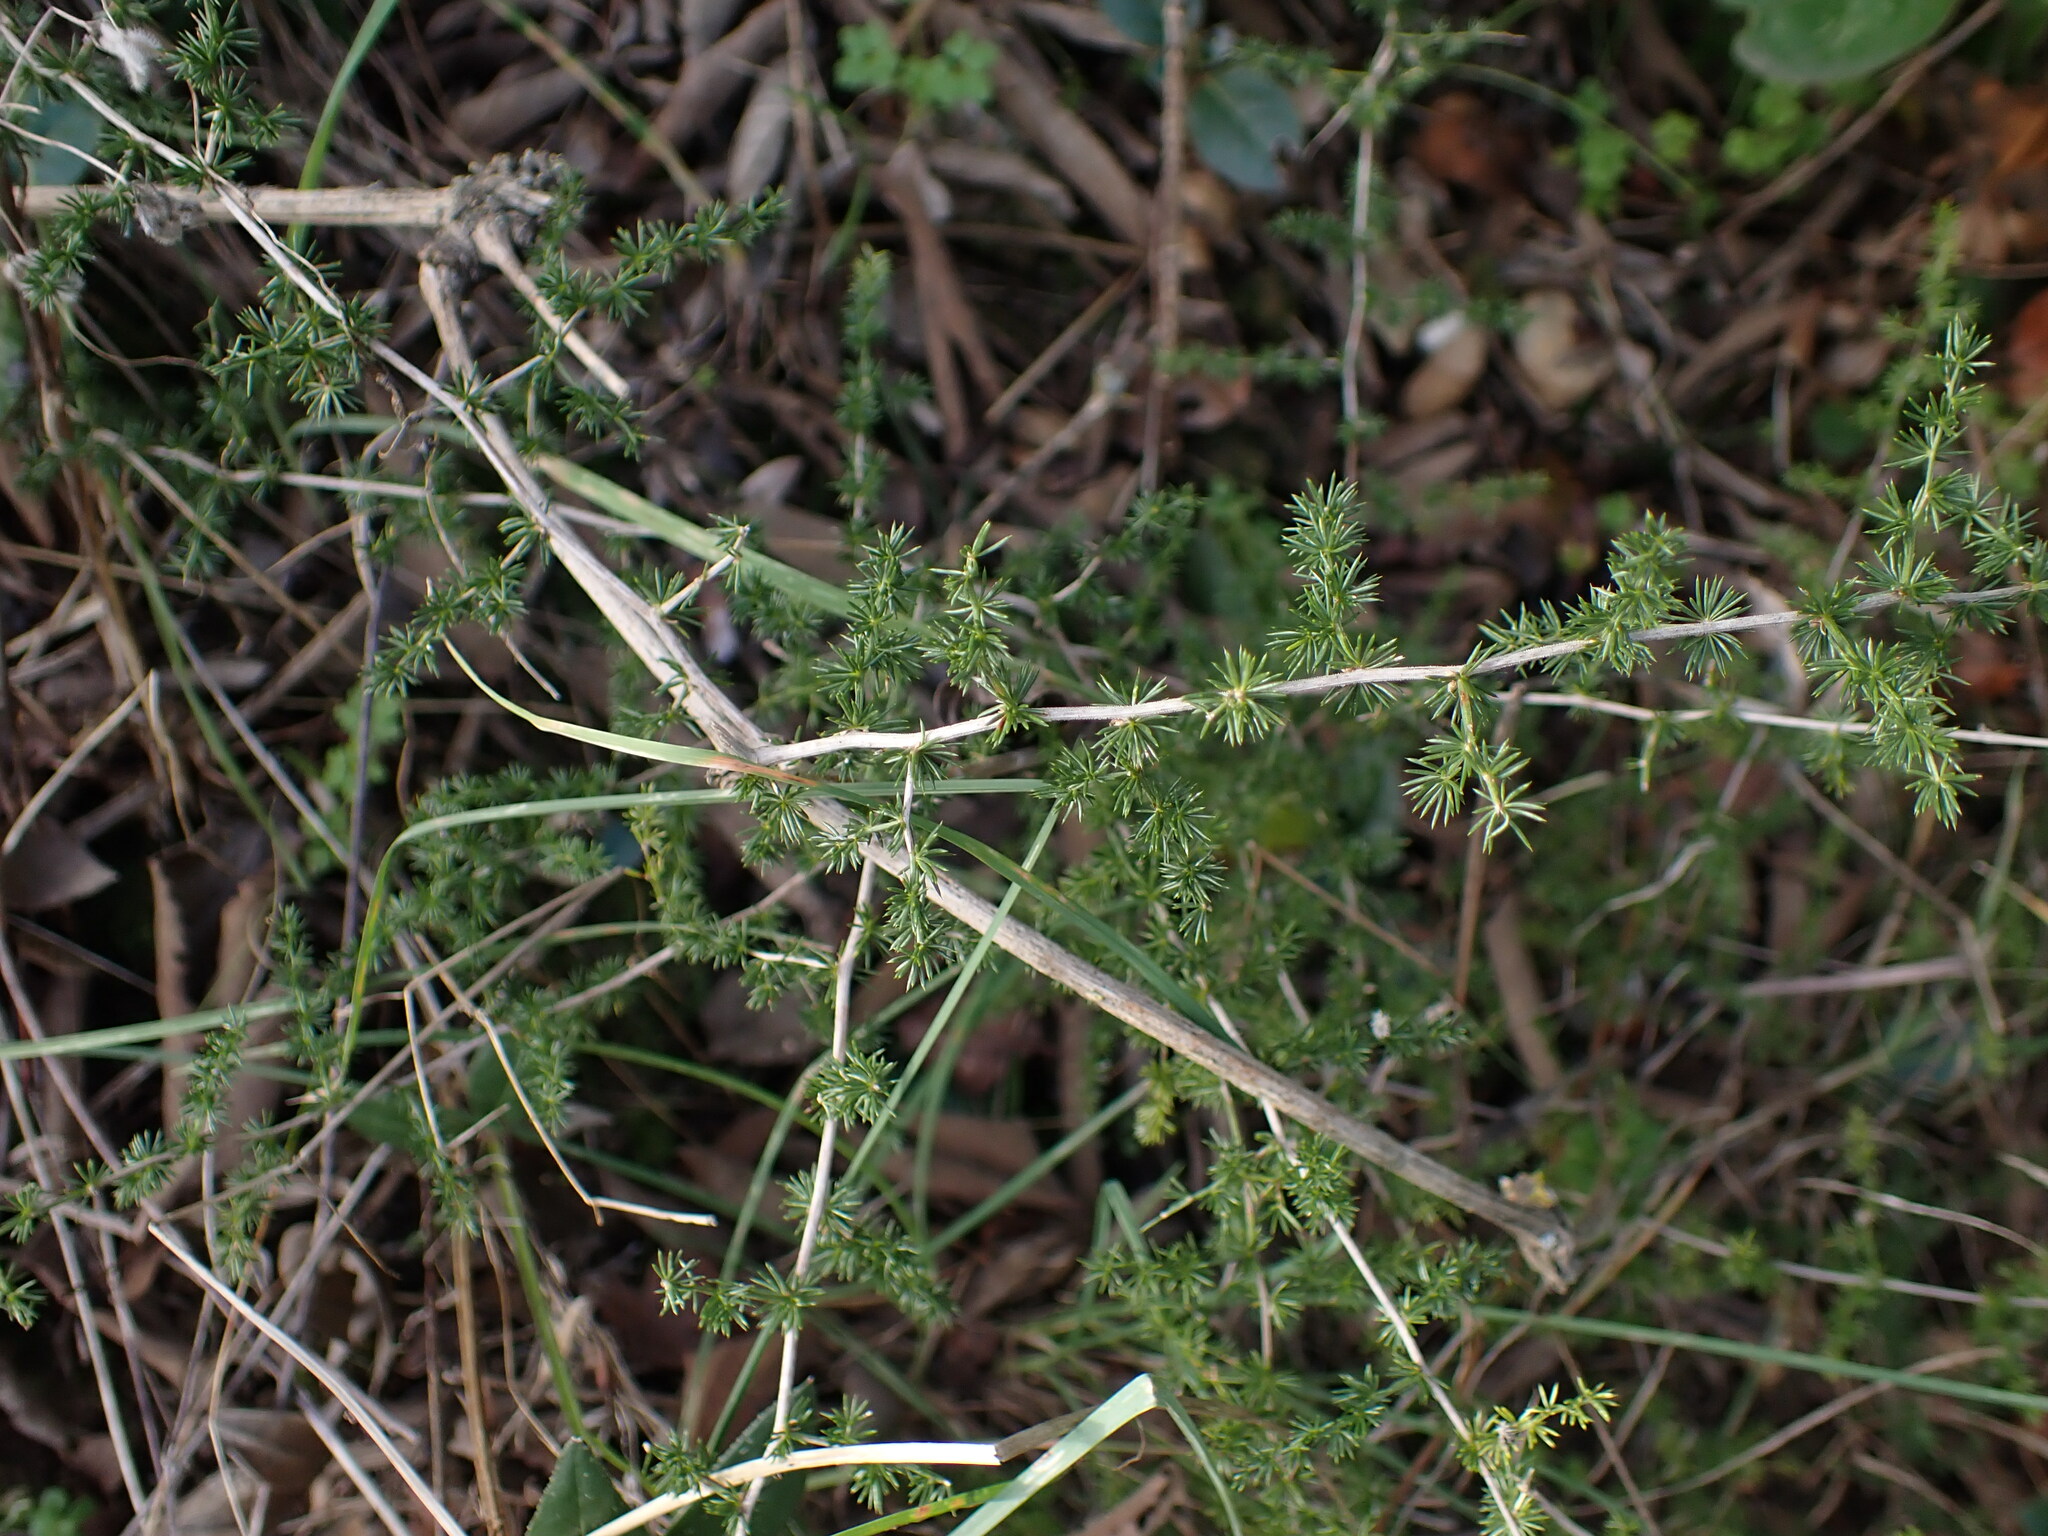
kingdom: Plantae
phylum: Tracheophyta
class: Liliopsida
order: Asparagales
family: Asparagaceae
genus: Asparagus
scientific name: Asparagus acutifolius
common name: Wild asparagus
